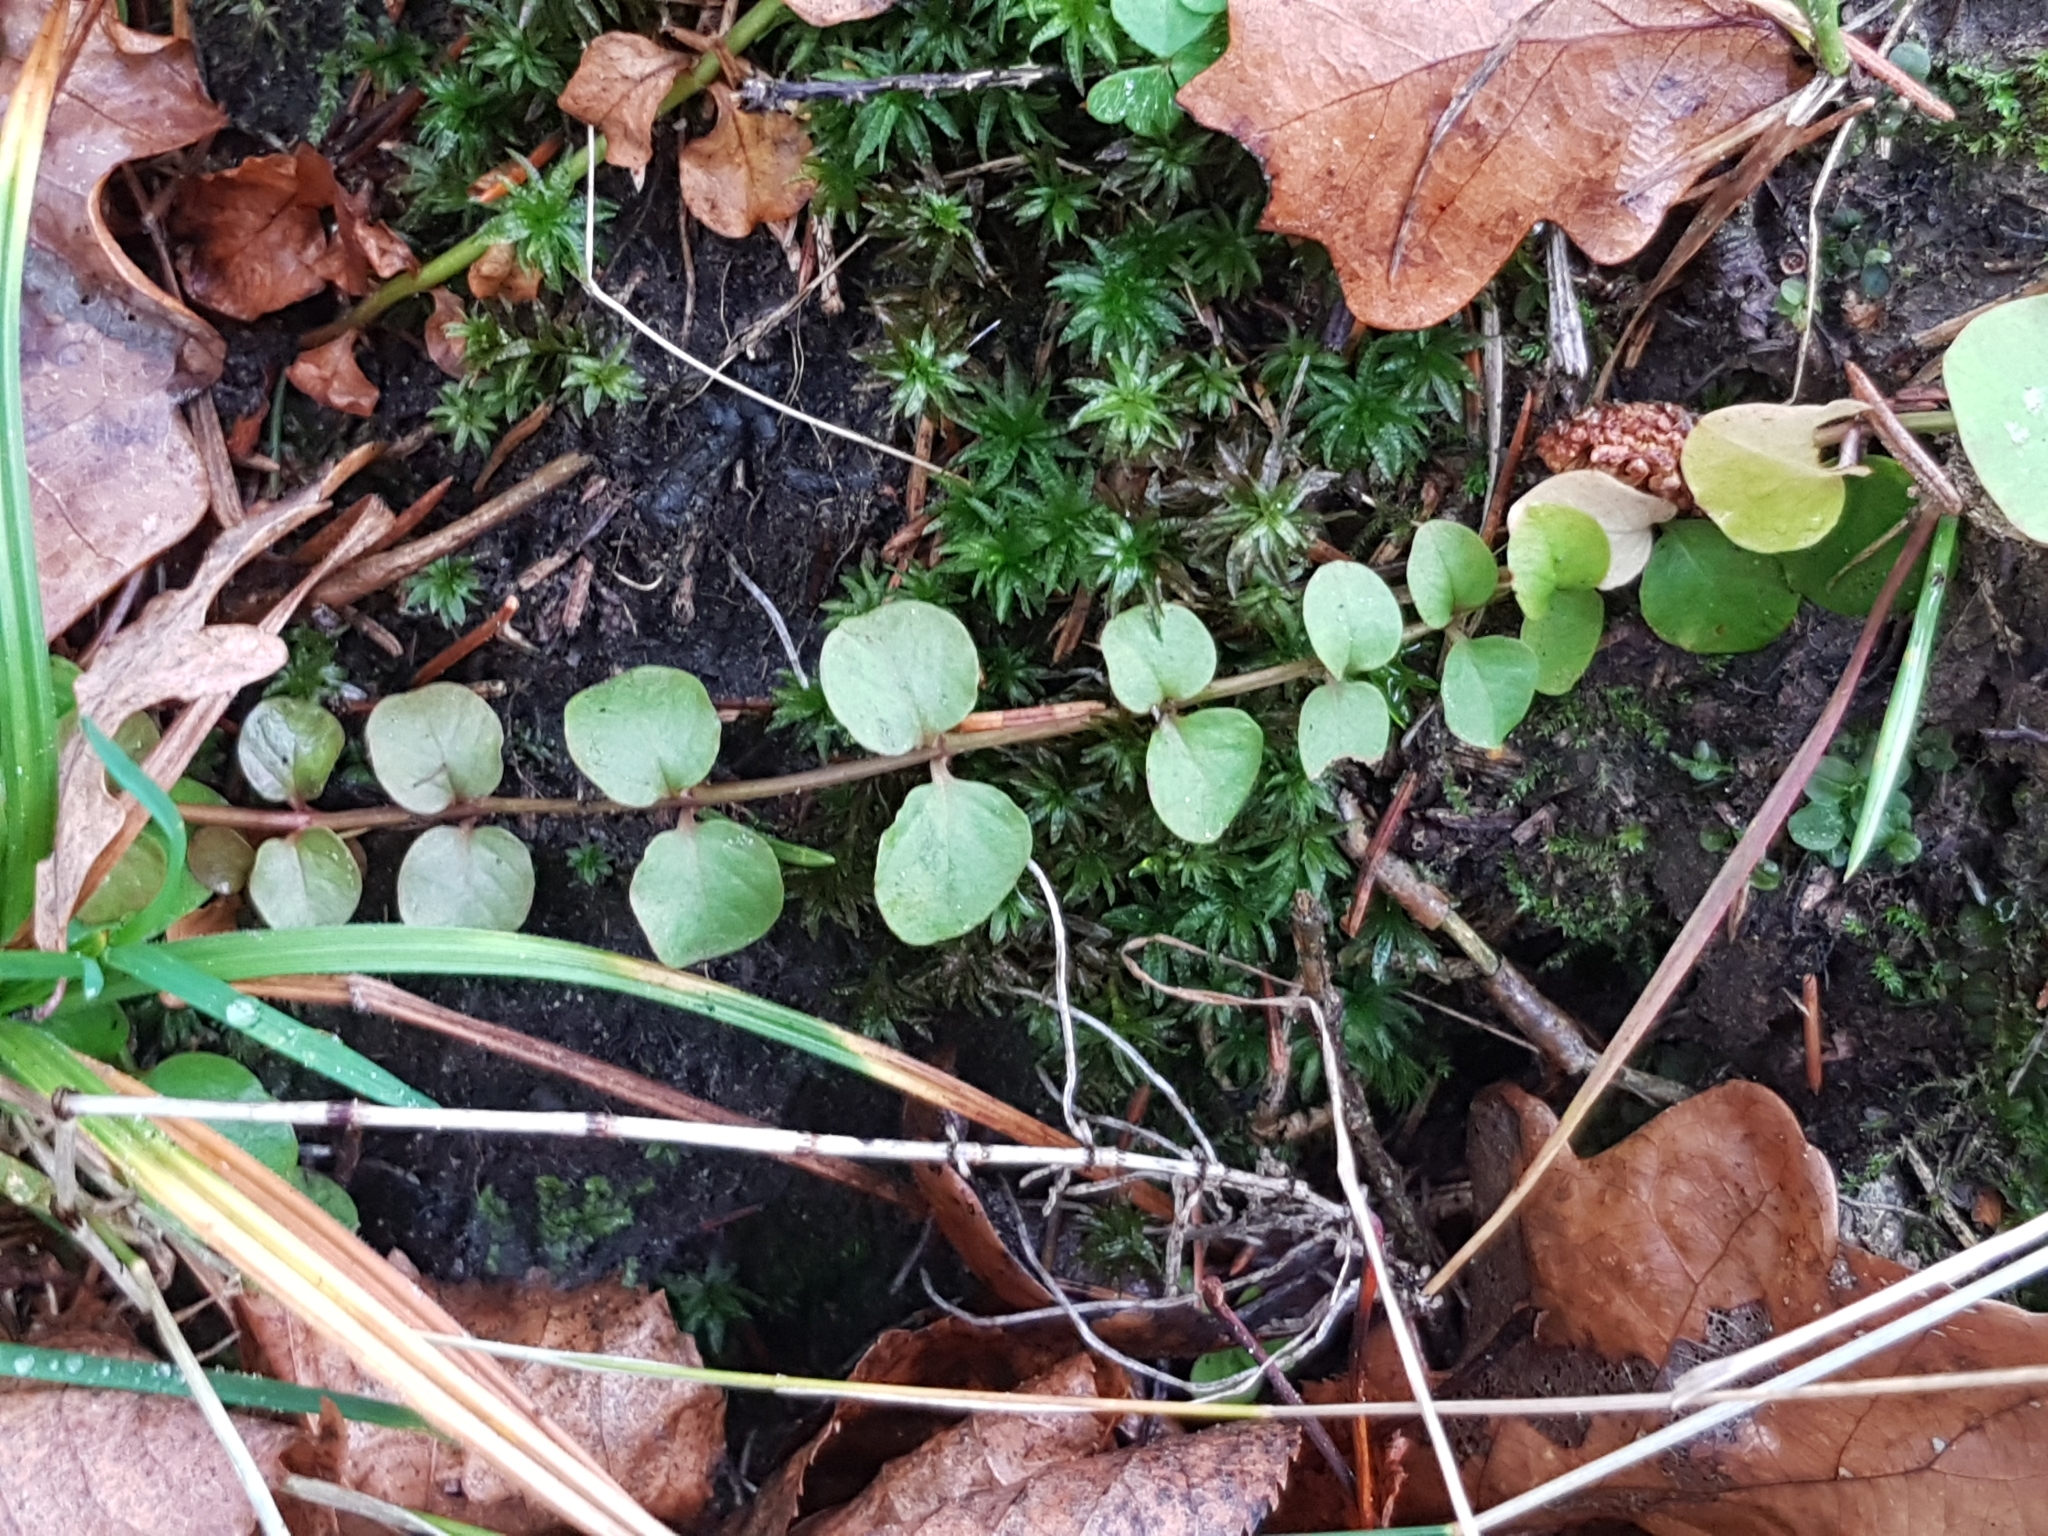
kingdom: Plantae
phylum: Tracheophyta
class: Magnoliopsida
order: Ericales
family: Primulaceae
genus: Lysimachia
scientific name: Lysimachia nummularia
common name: Moneywort
